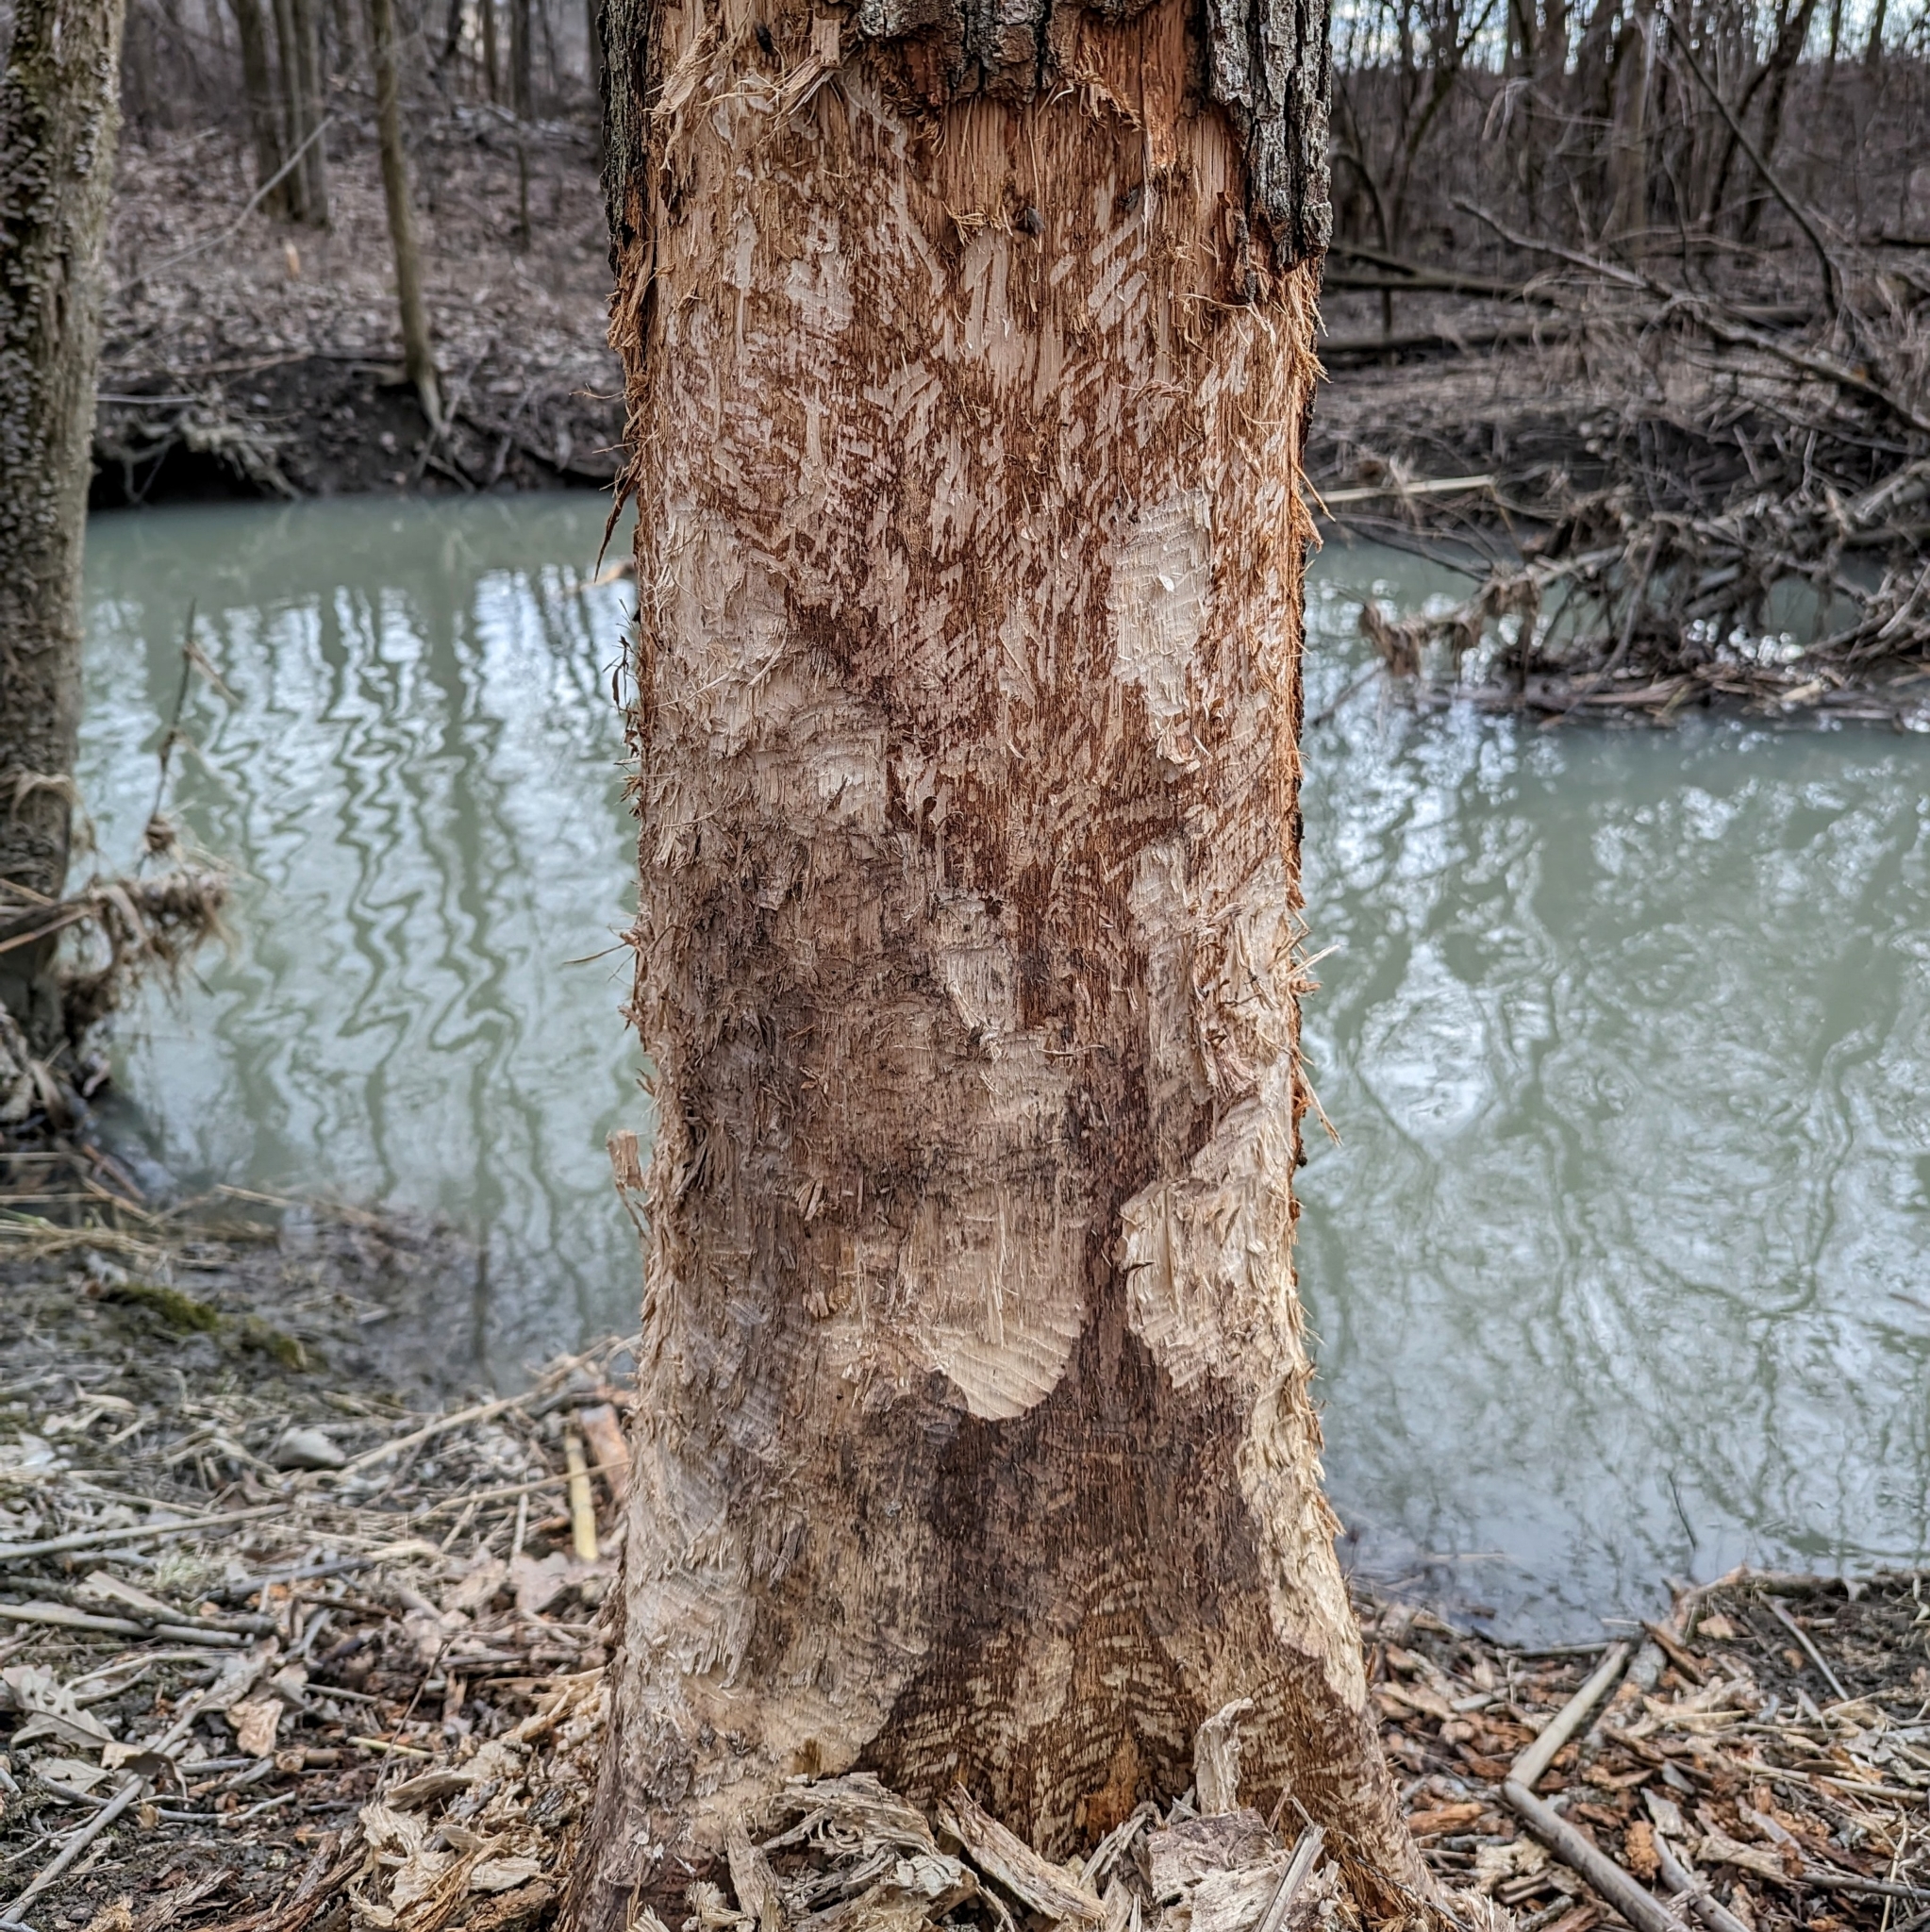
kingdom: Animalia
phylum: Chordata
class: Mammalia
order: Rodentia
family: Castoridae
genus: Castor
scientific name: Castor canadensis
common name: American beaver
